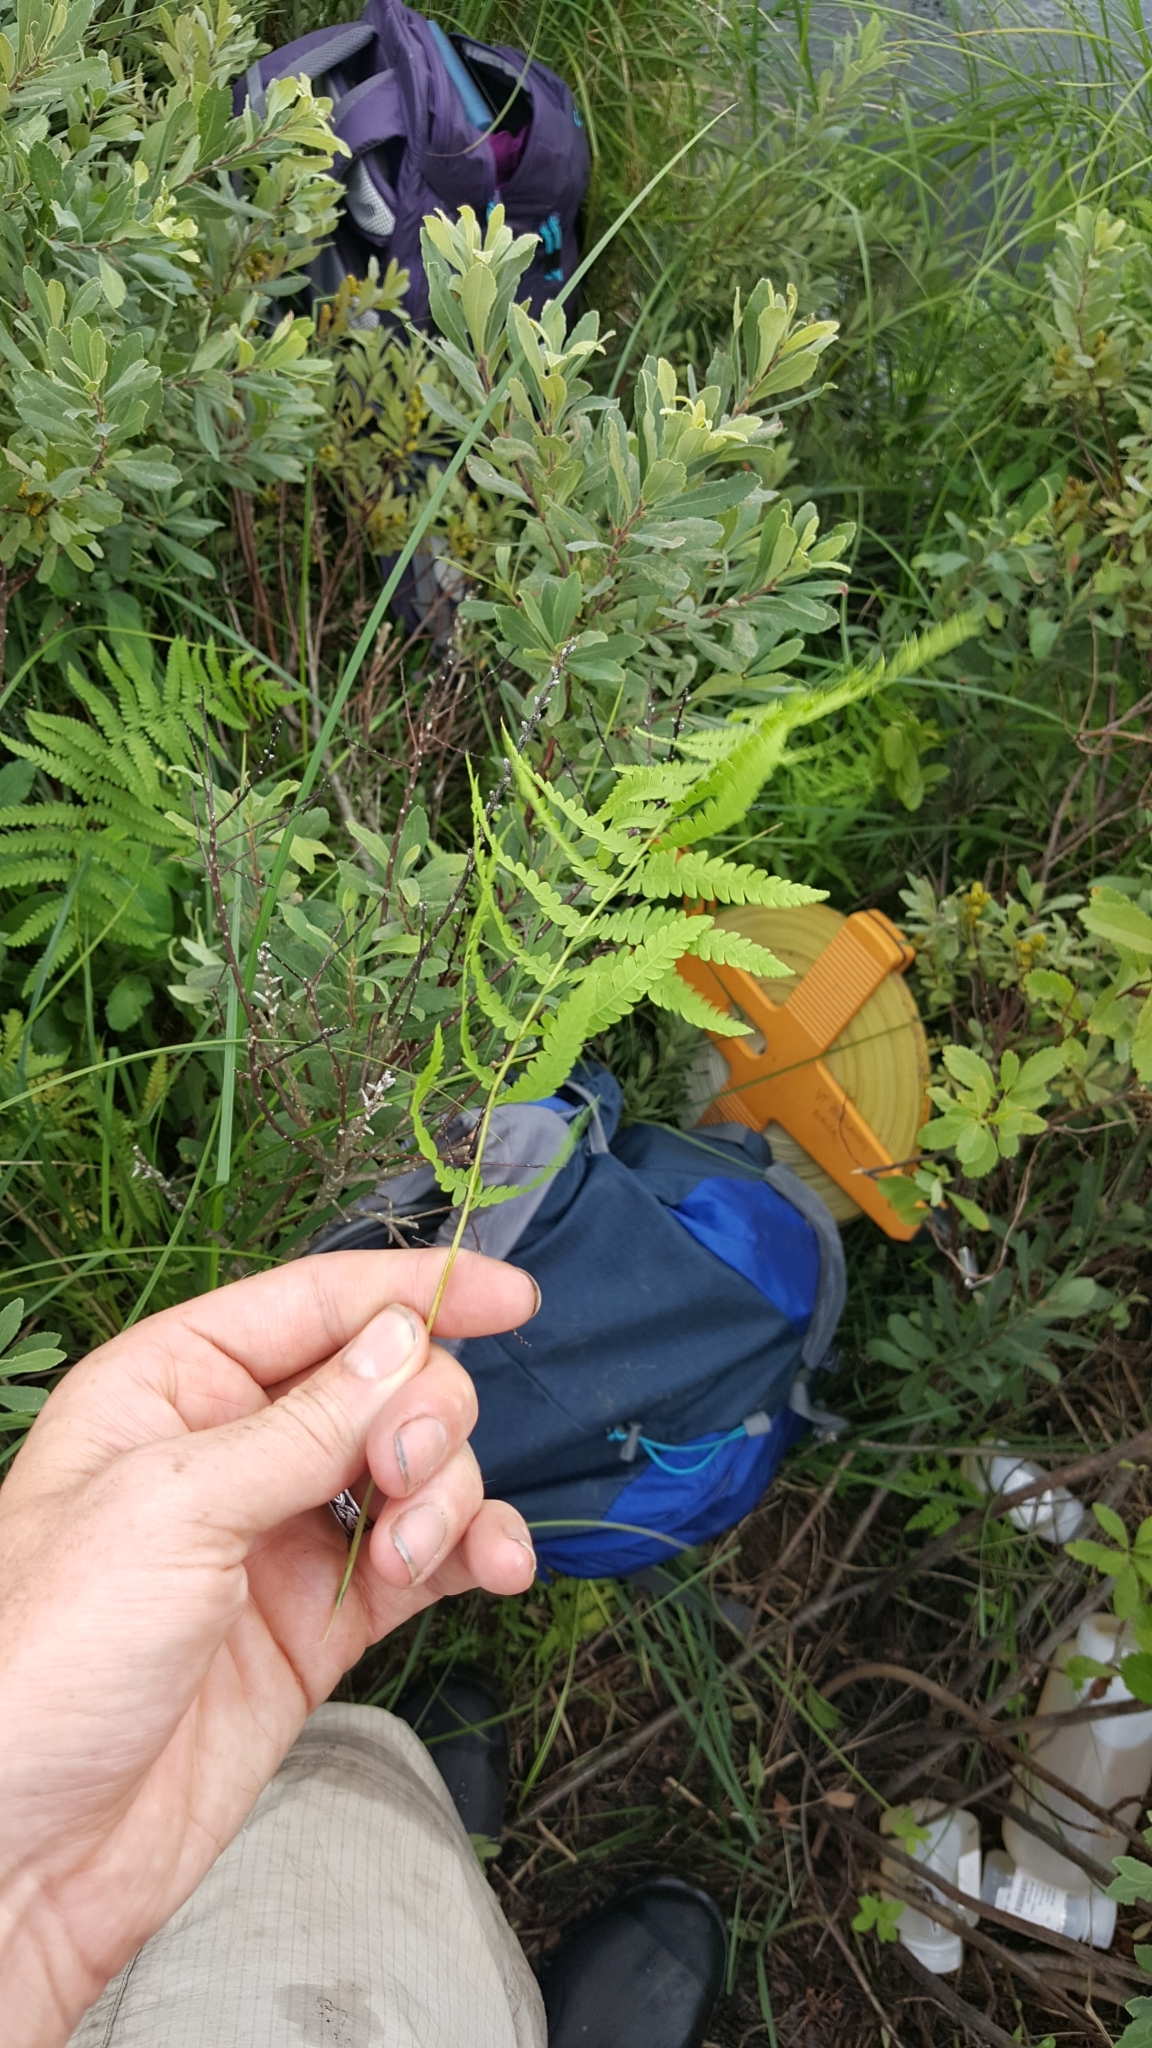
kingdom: Plantae
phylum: Tracheophyta
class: Polypodiopsida
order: Polypodiales
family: Thelypteridaceae
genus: Thelypteris
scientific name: Thelypteris palustris
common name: Marsh fern
